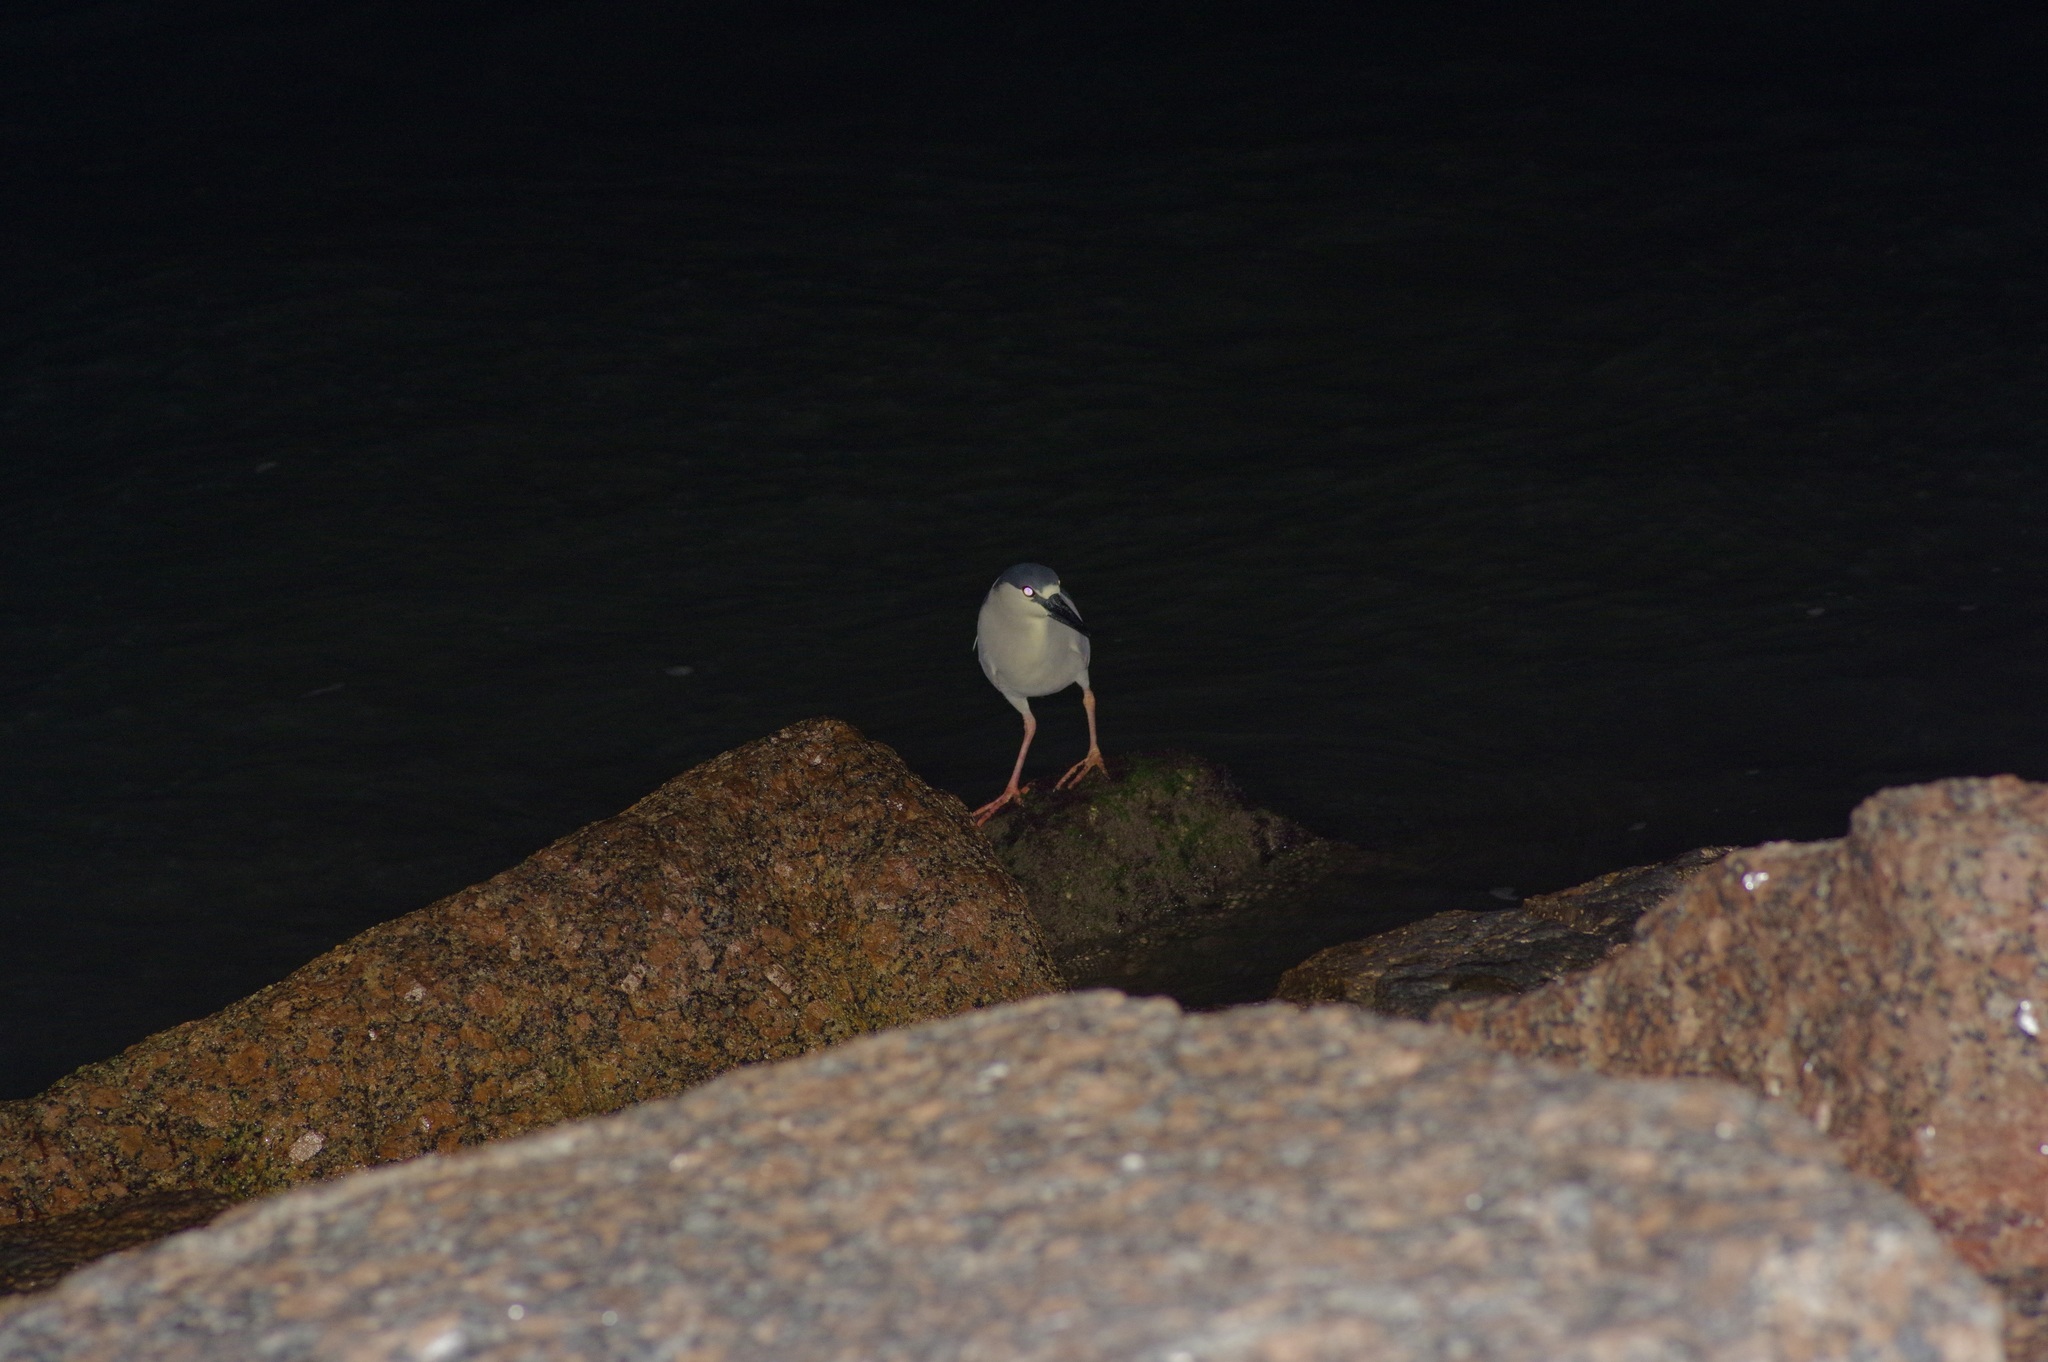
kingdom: Animalia
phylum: Chordata
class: Aves
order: Pelecaniformes
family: Ardeidae
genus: Nycticorax
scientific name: Nycticorax nycticorax
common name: Black-crowned night heron
